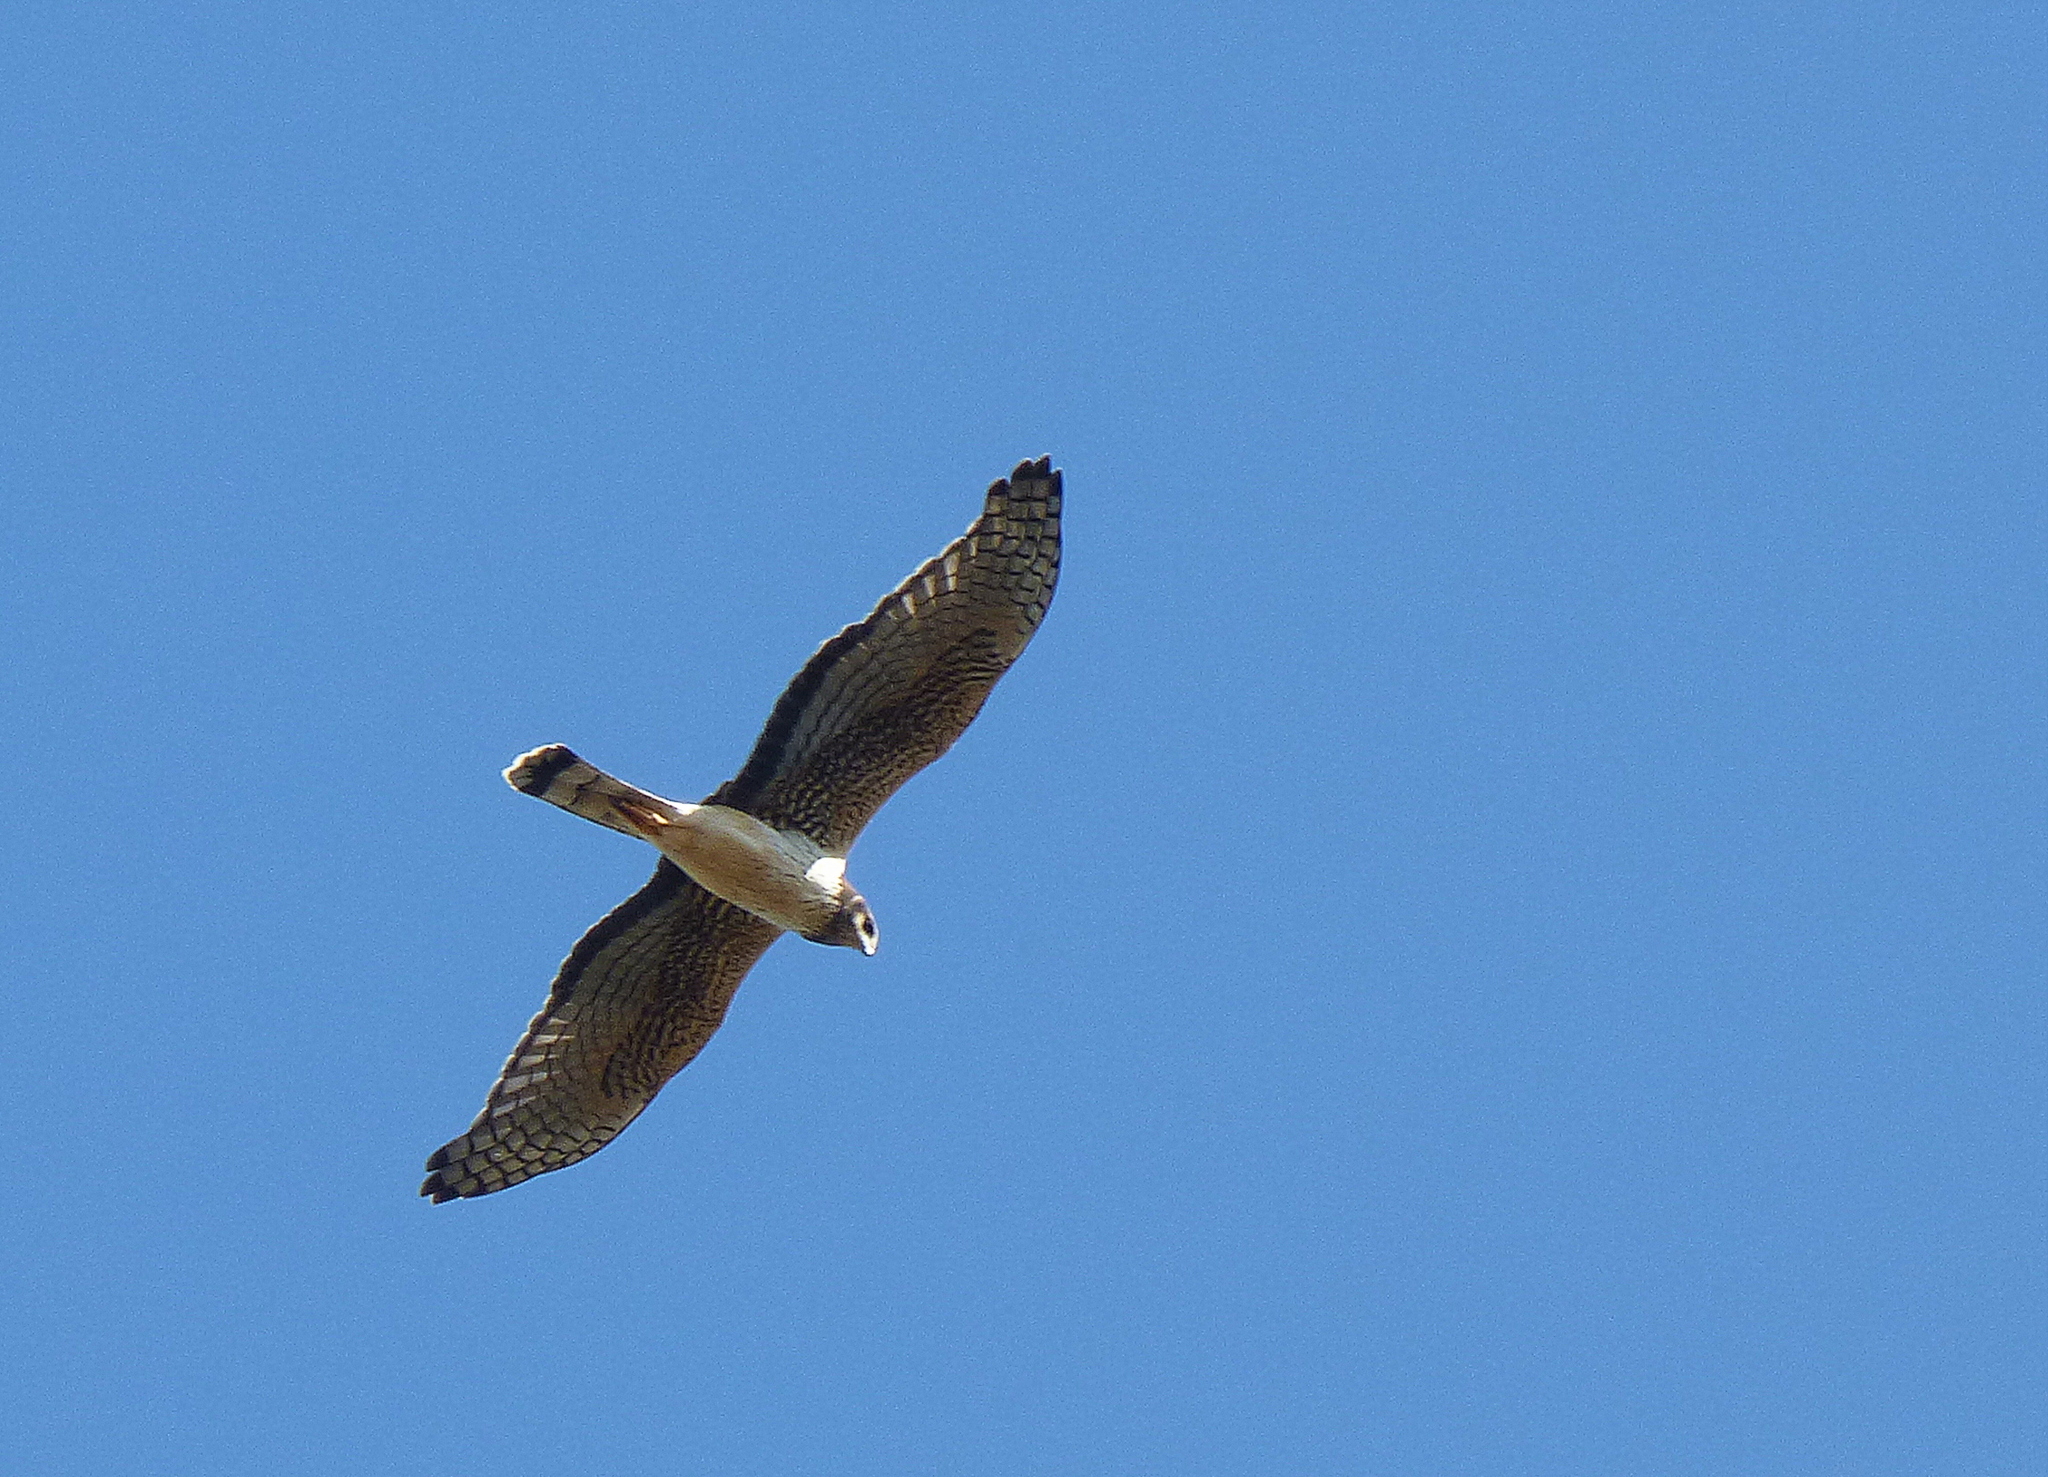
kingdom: Animalia
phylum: Chordata
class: Aves
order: Accipitriformes
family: Accipitridae
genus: Circus
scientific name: Circus buffoni
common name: Long-winged harrier
